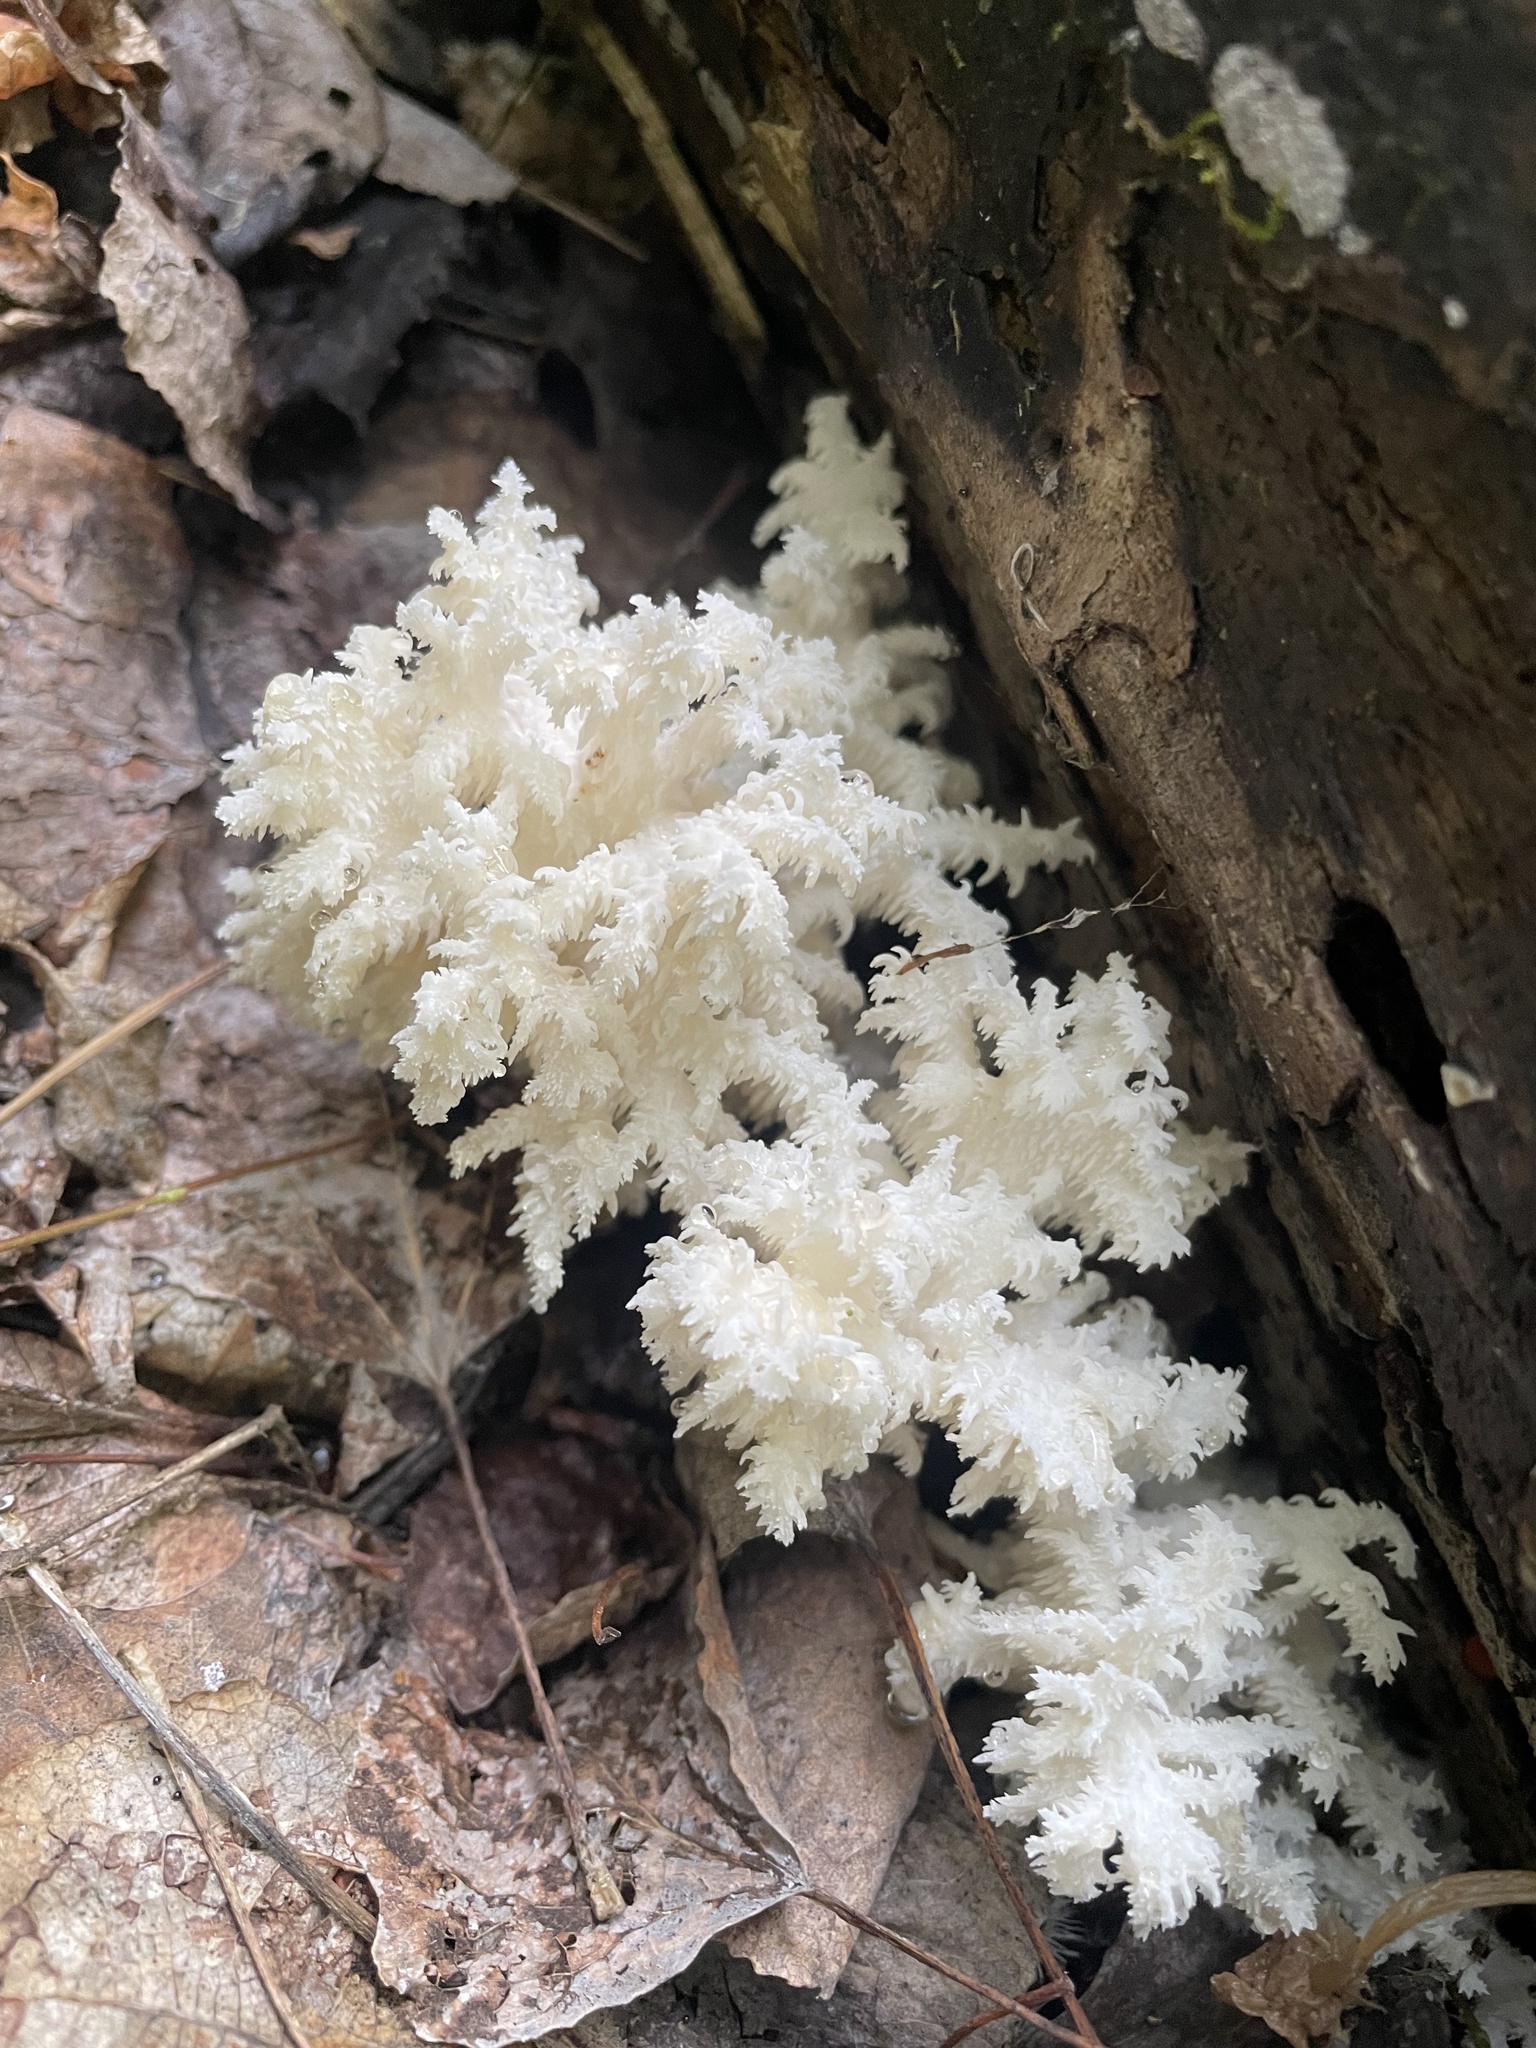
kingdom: Fungi
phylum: Basidiomycota
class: Agaricomycetes
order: Russulales
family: Hericiaceae
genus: Hericium
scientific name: Hericium coralloides
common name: Coral tooth
